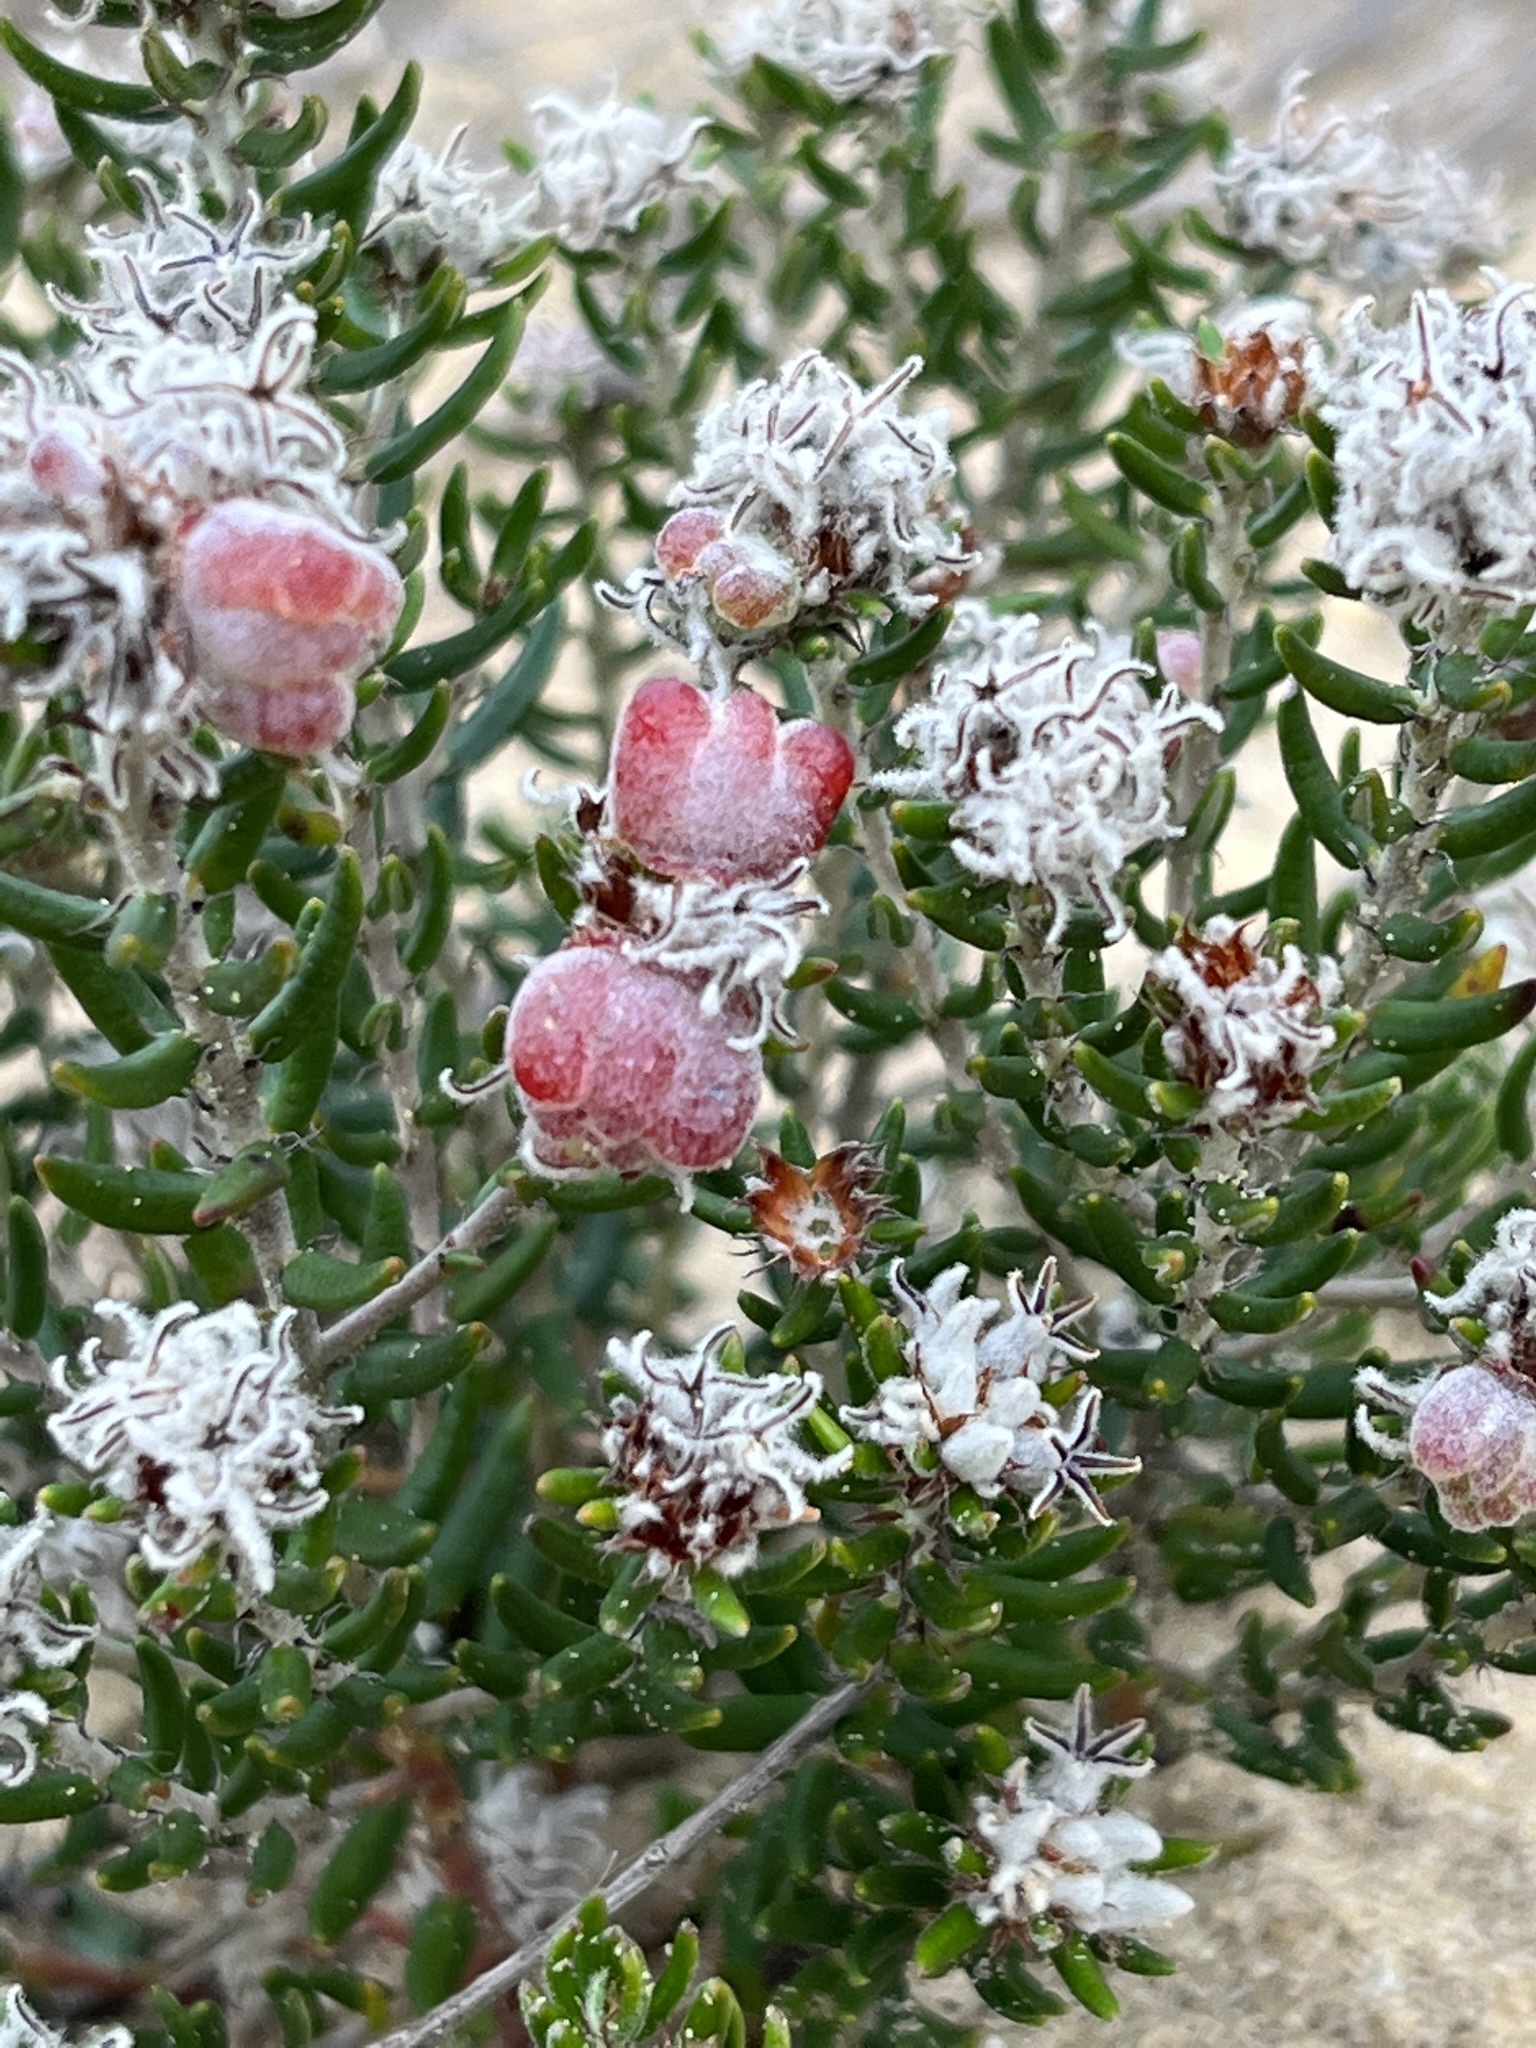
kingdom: Plantae
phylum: Tracheophyta
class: Magnoliopsida
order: Rosales
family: Rhamnaceae
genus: Trichocephalus
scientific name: Trichocephalus stipularis
